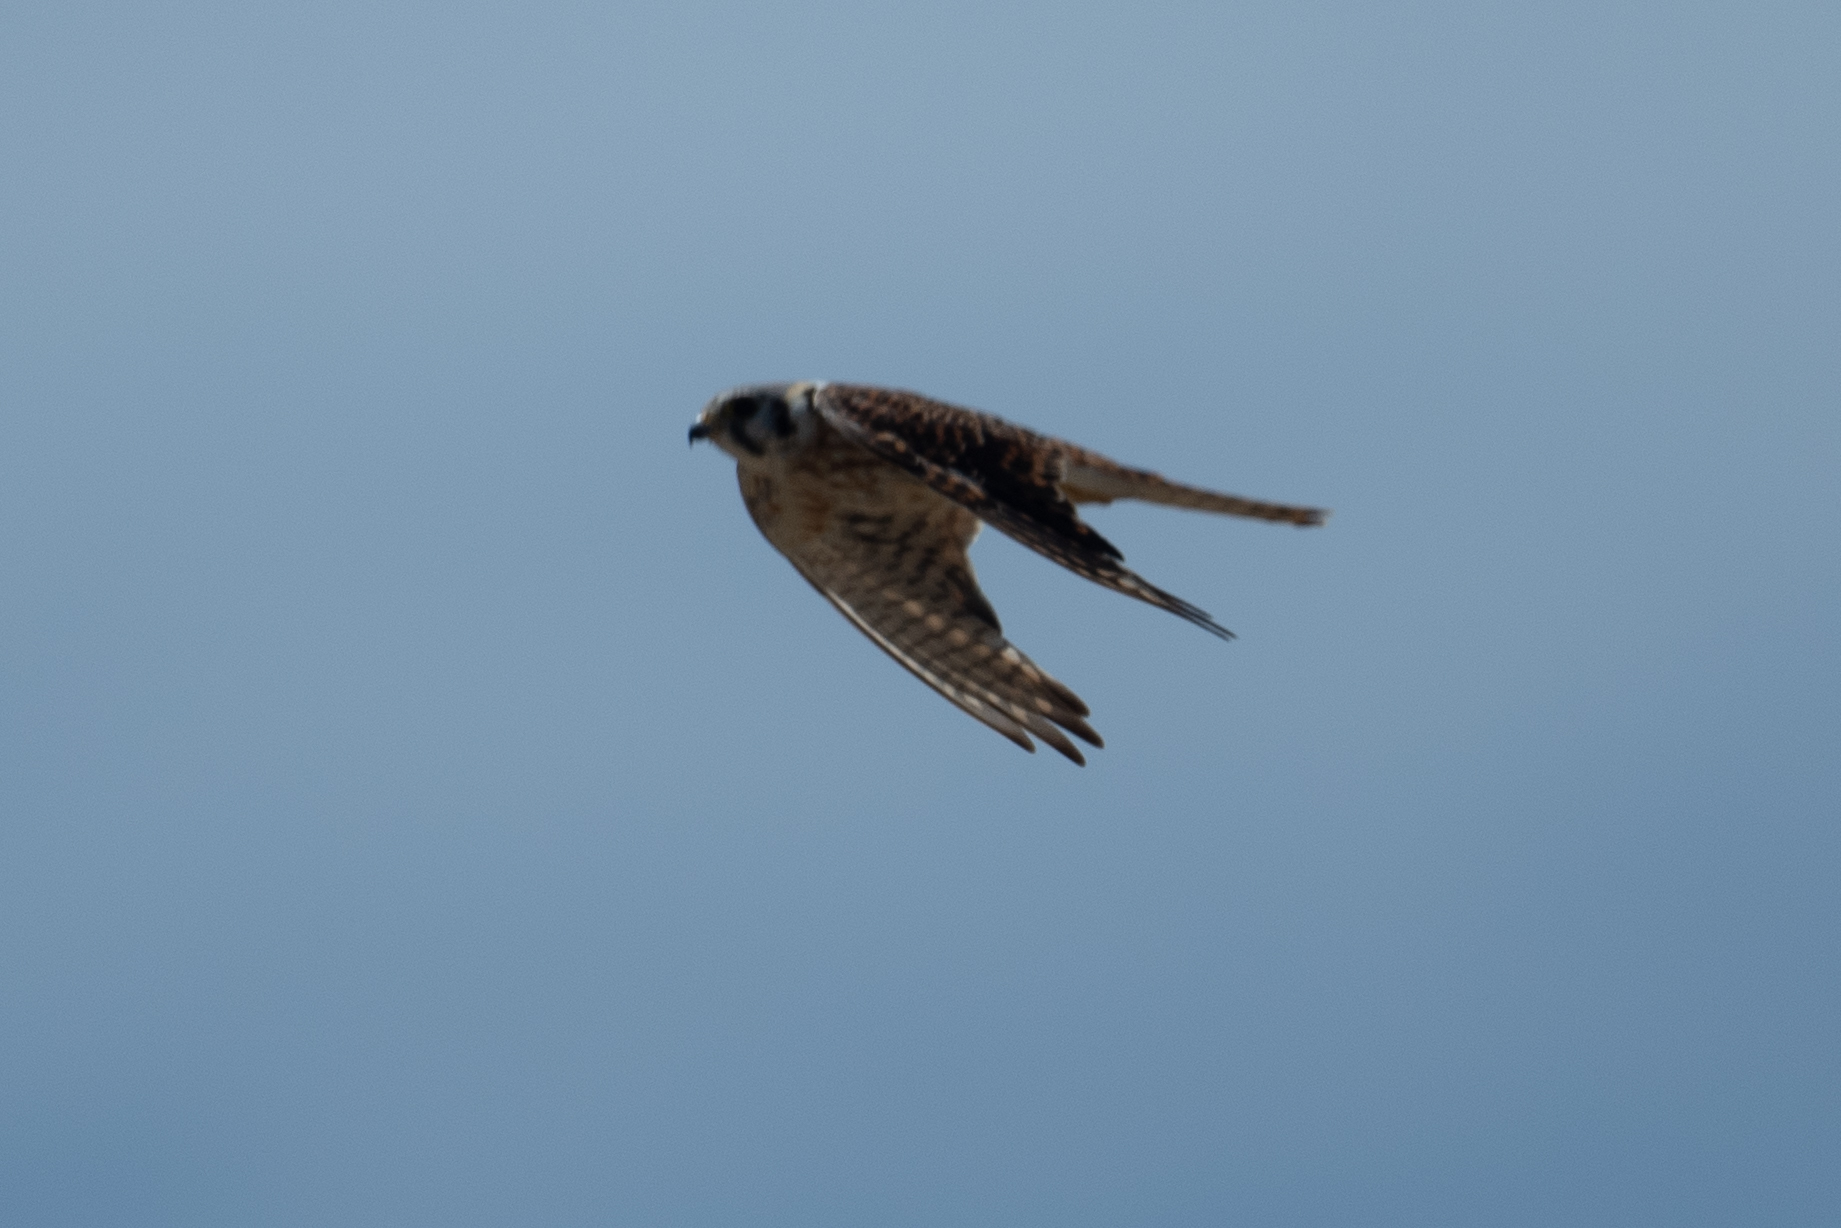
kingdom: Animalia
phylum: Chordata
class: Aves
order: Falconiformes
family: Falconidae
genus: Falco
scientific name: Falco sparverius
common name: American kestrel
